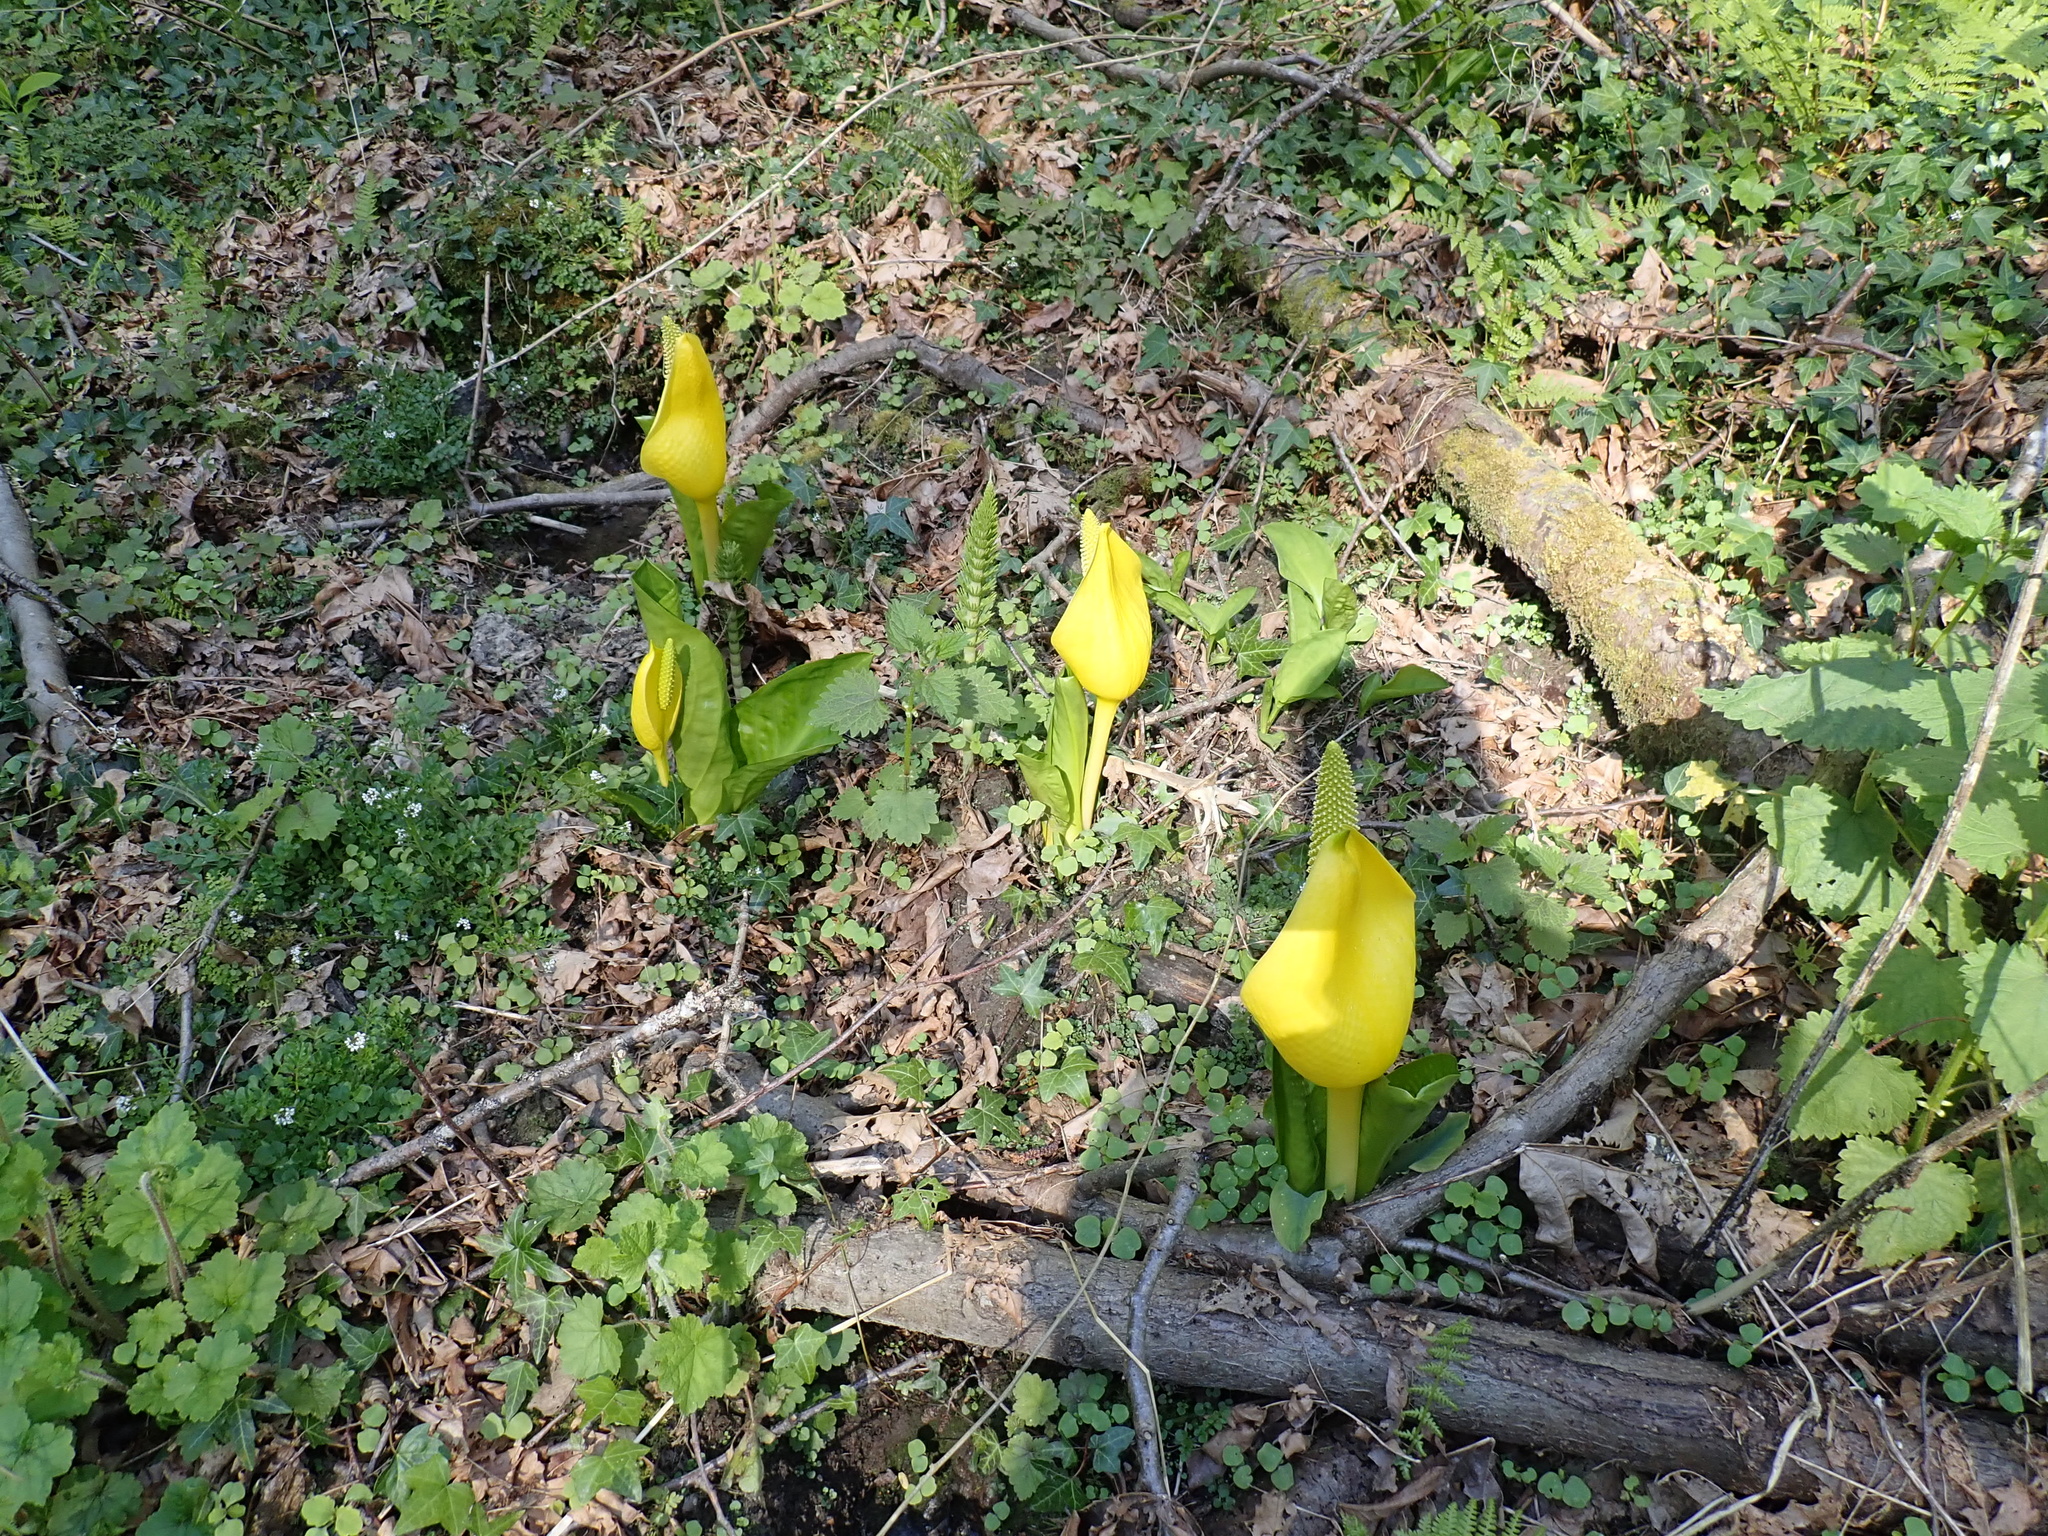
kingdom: Plantae
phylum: Tracheophyta
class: Liliopsida
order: Alismatales
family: Araceae
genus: Lysichiton
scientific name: Lysichiton americanus
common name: American skunk cabbage
